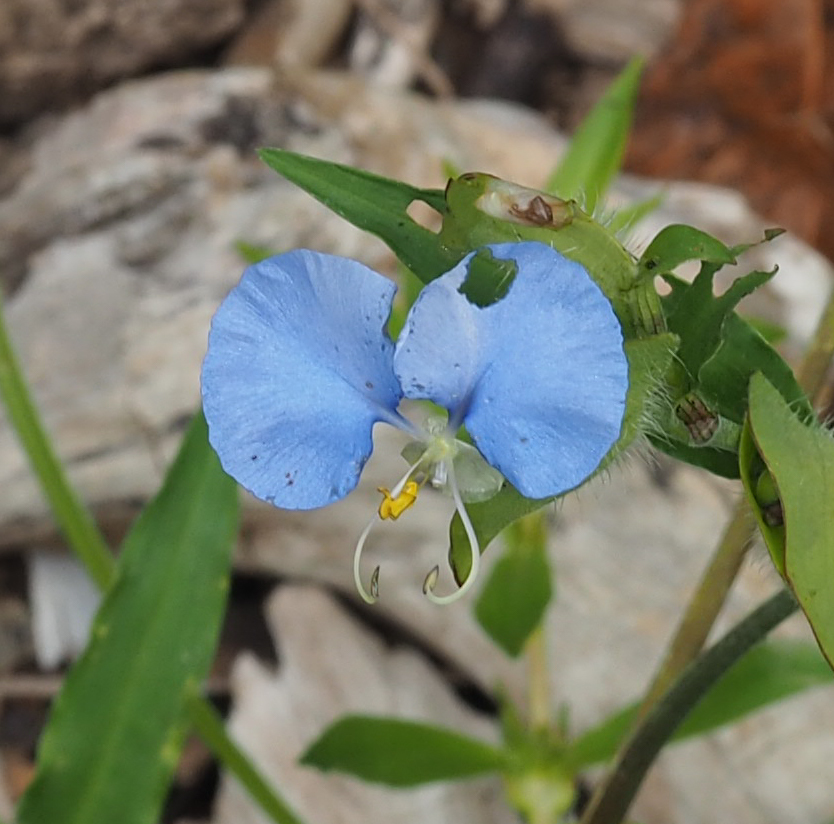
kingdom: Plantae
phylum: Tracheophyta
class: Liliopsida
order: Commelinales
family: Commelinaceae
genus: Commelina
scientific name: Commelina erecta
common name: Blousel blommetjie
